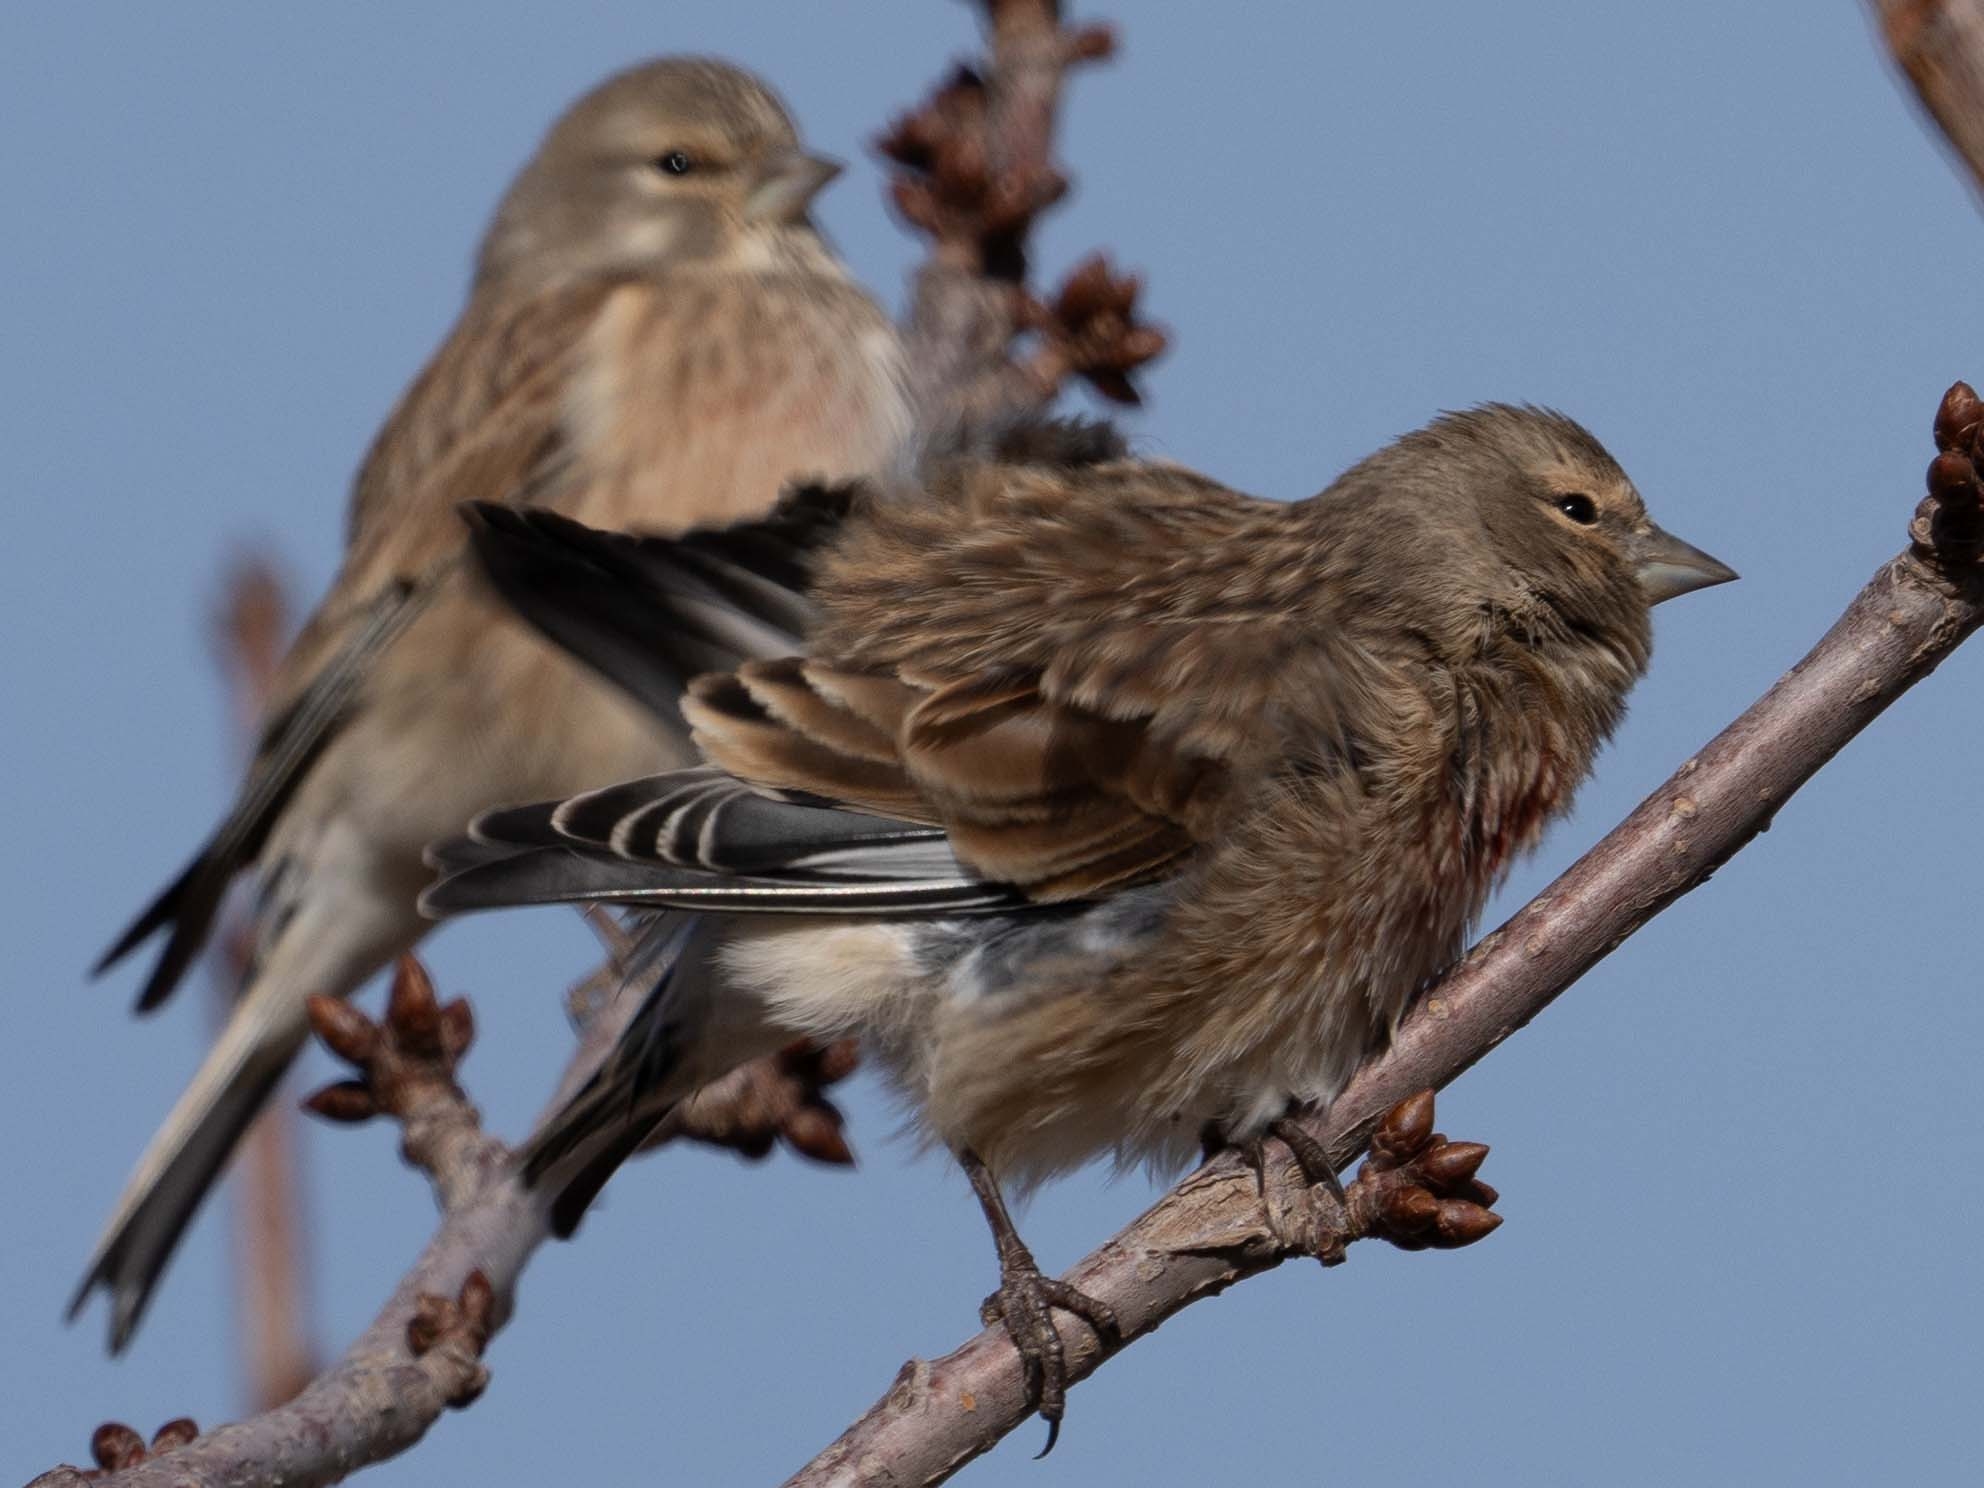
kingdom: Animalia
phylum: Chordata
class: Aves
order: Passeriformes
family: Fringillidae
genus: Linaria
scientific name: Linaria cannabina
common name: Common linnet
